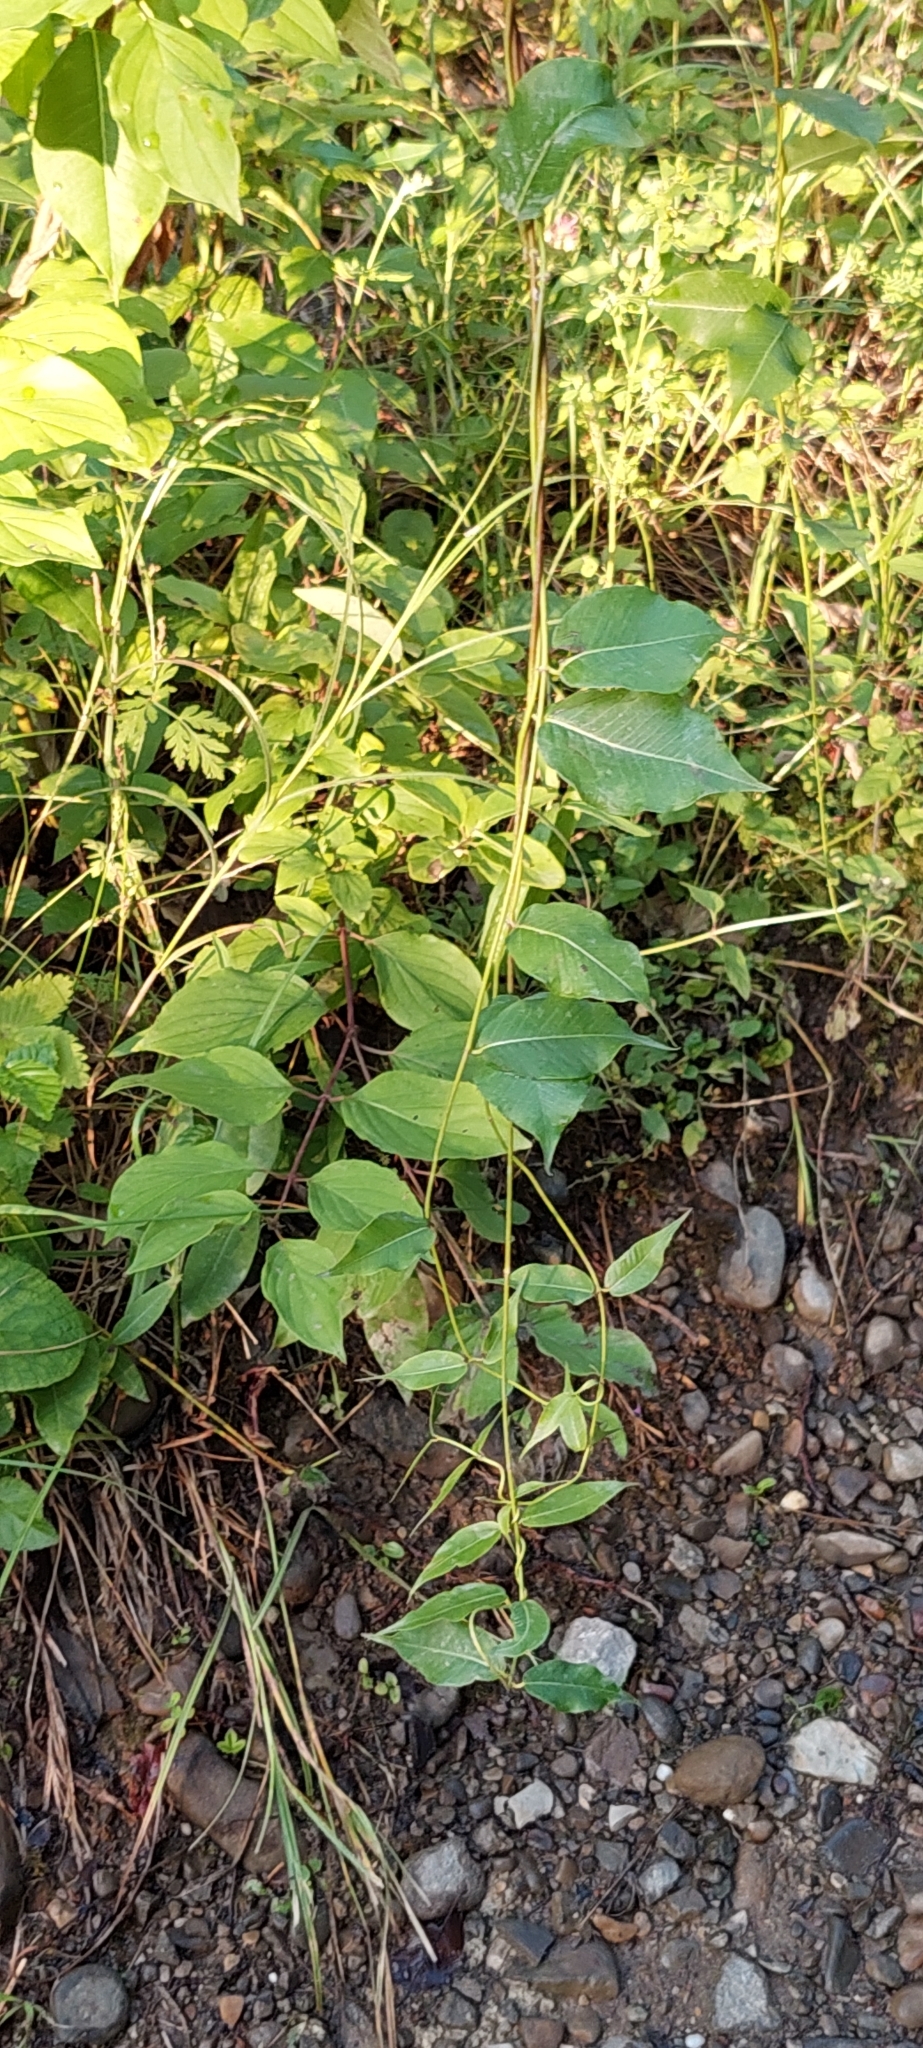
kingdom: Plantae
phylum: Tracheophyta
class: Magnoliopsida
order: Gentianales
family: Apocynaceae
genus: Periploca
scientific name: Periploca graeca
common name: Silkvine
